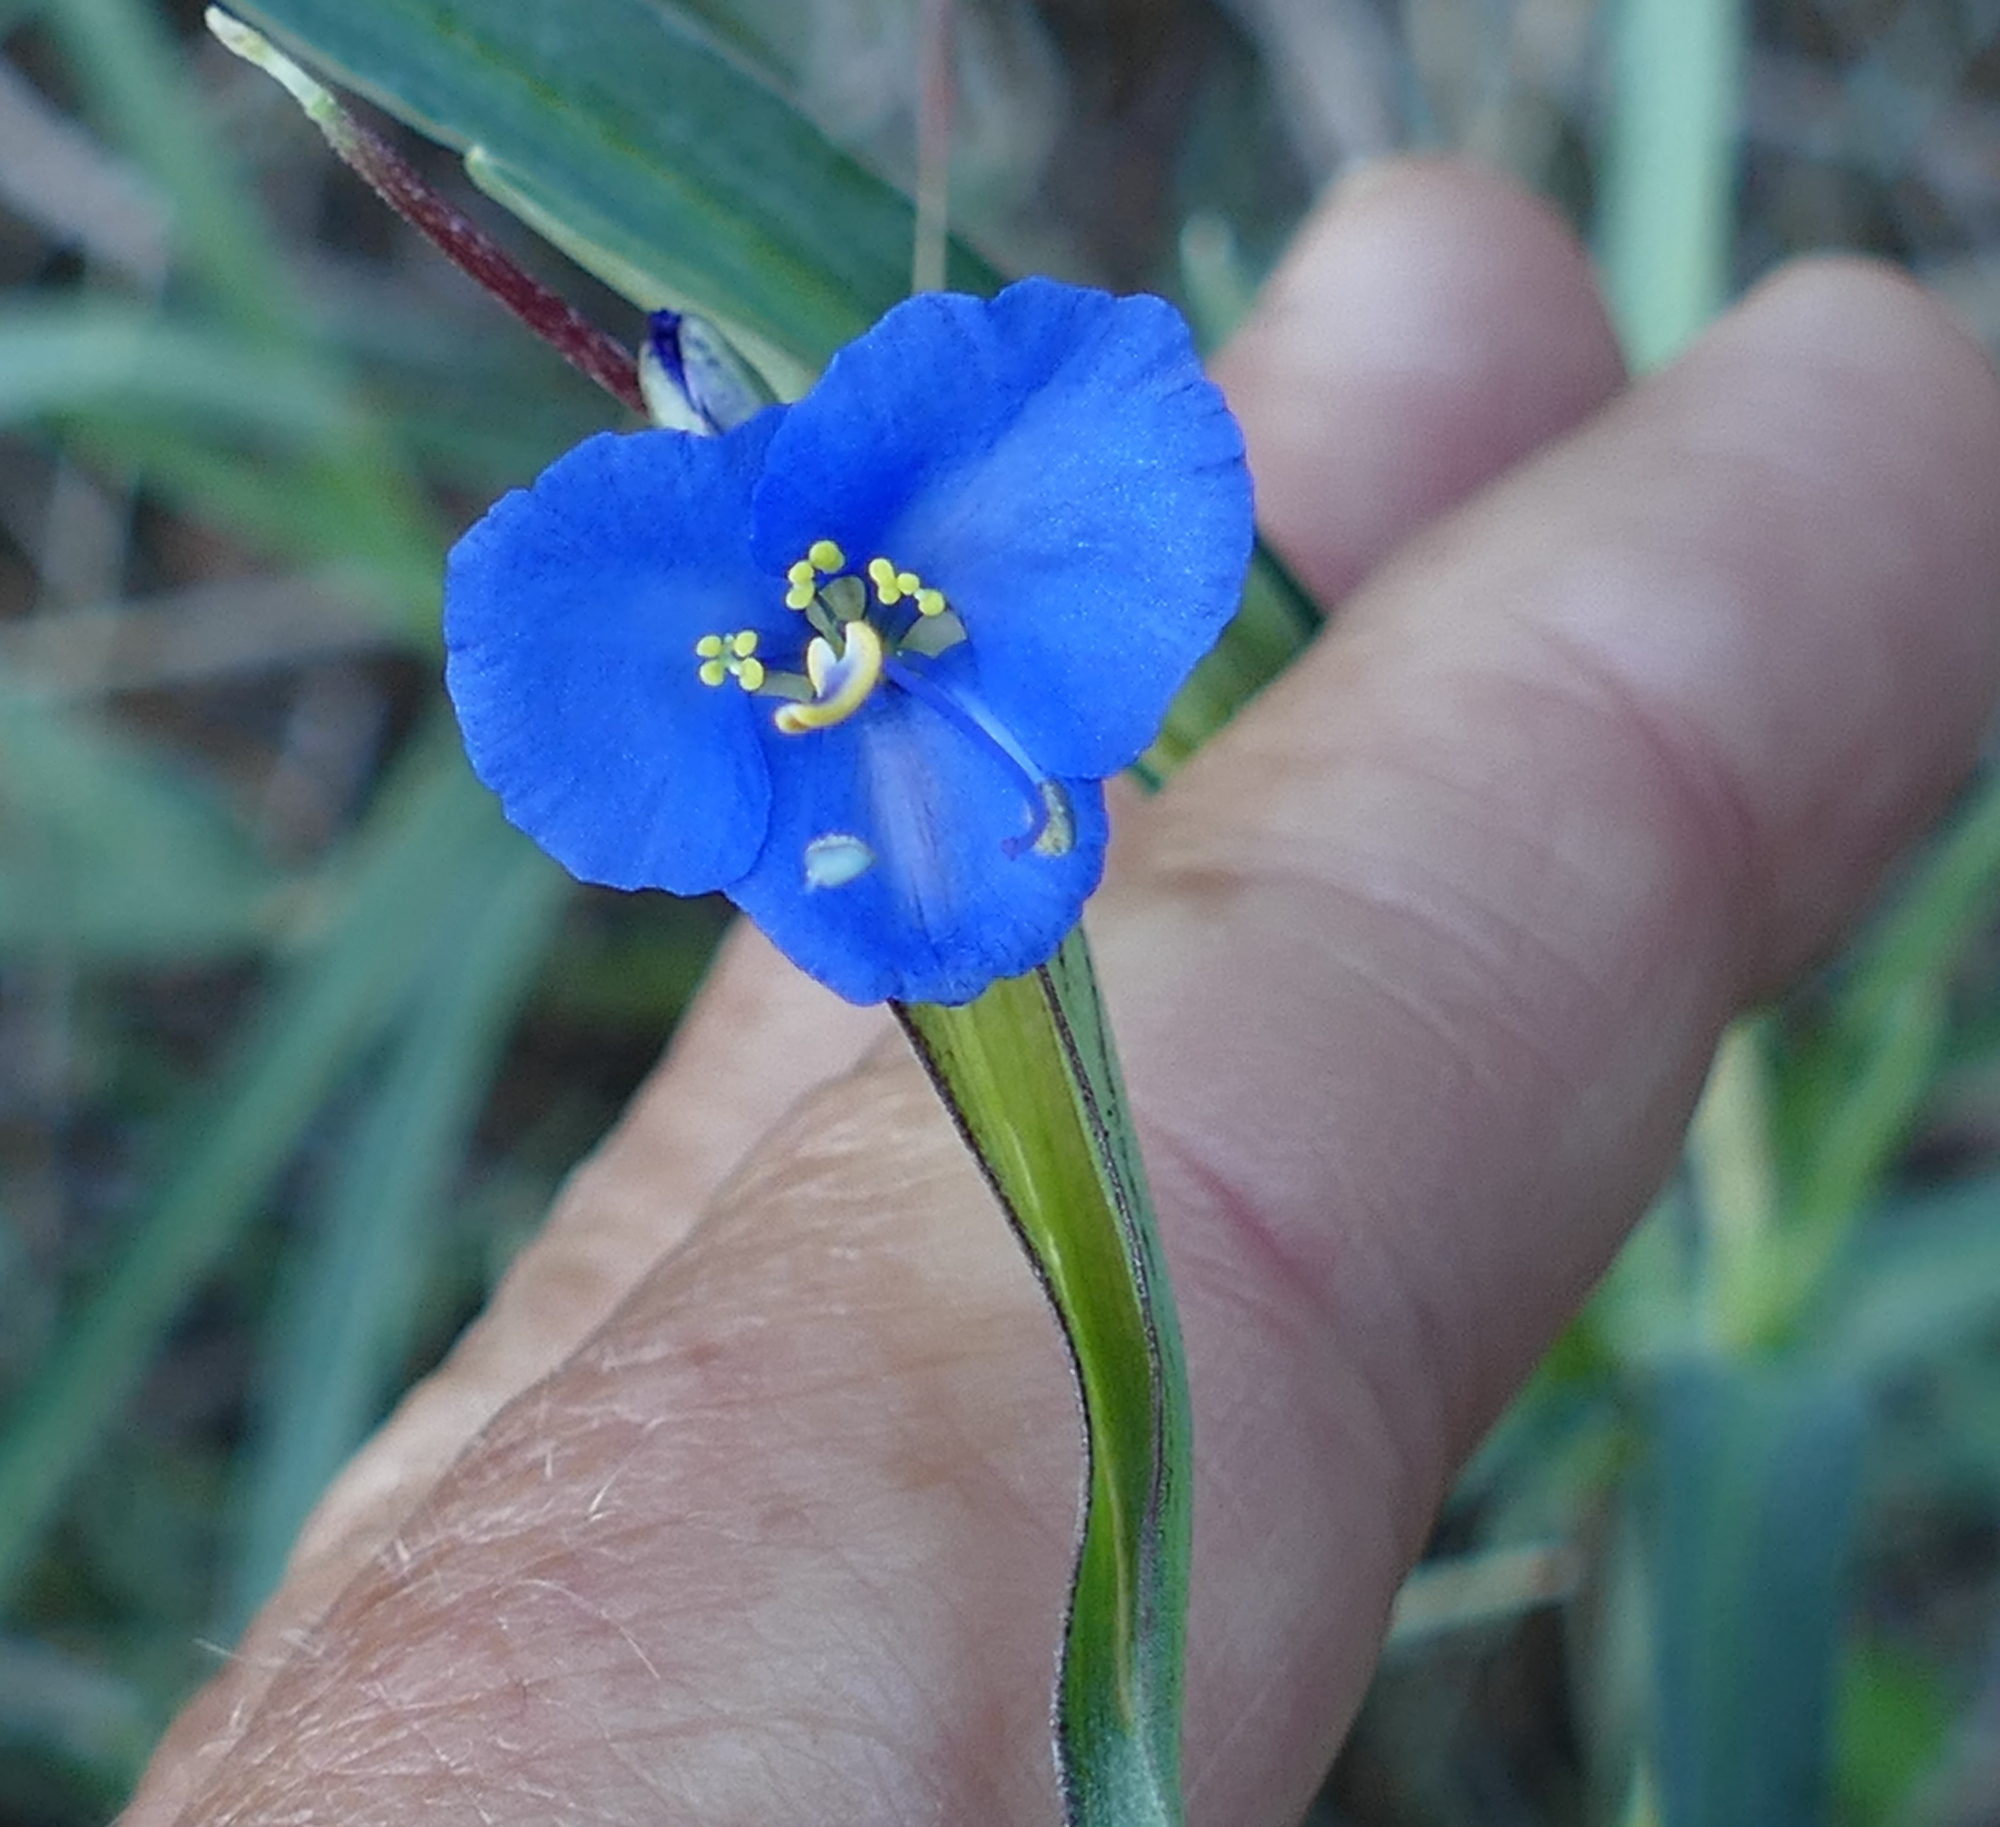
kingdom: Plantae
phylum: Tracheophyta
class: Liliopsida
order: Commelinales
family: Commelinaceae
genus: Commelina
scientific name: Commelina dianthifolia
